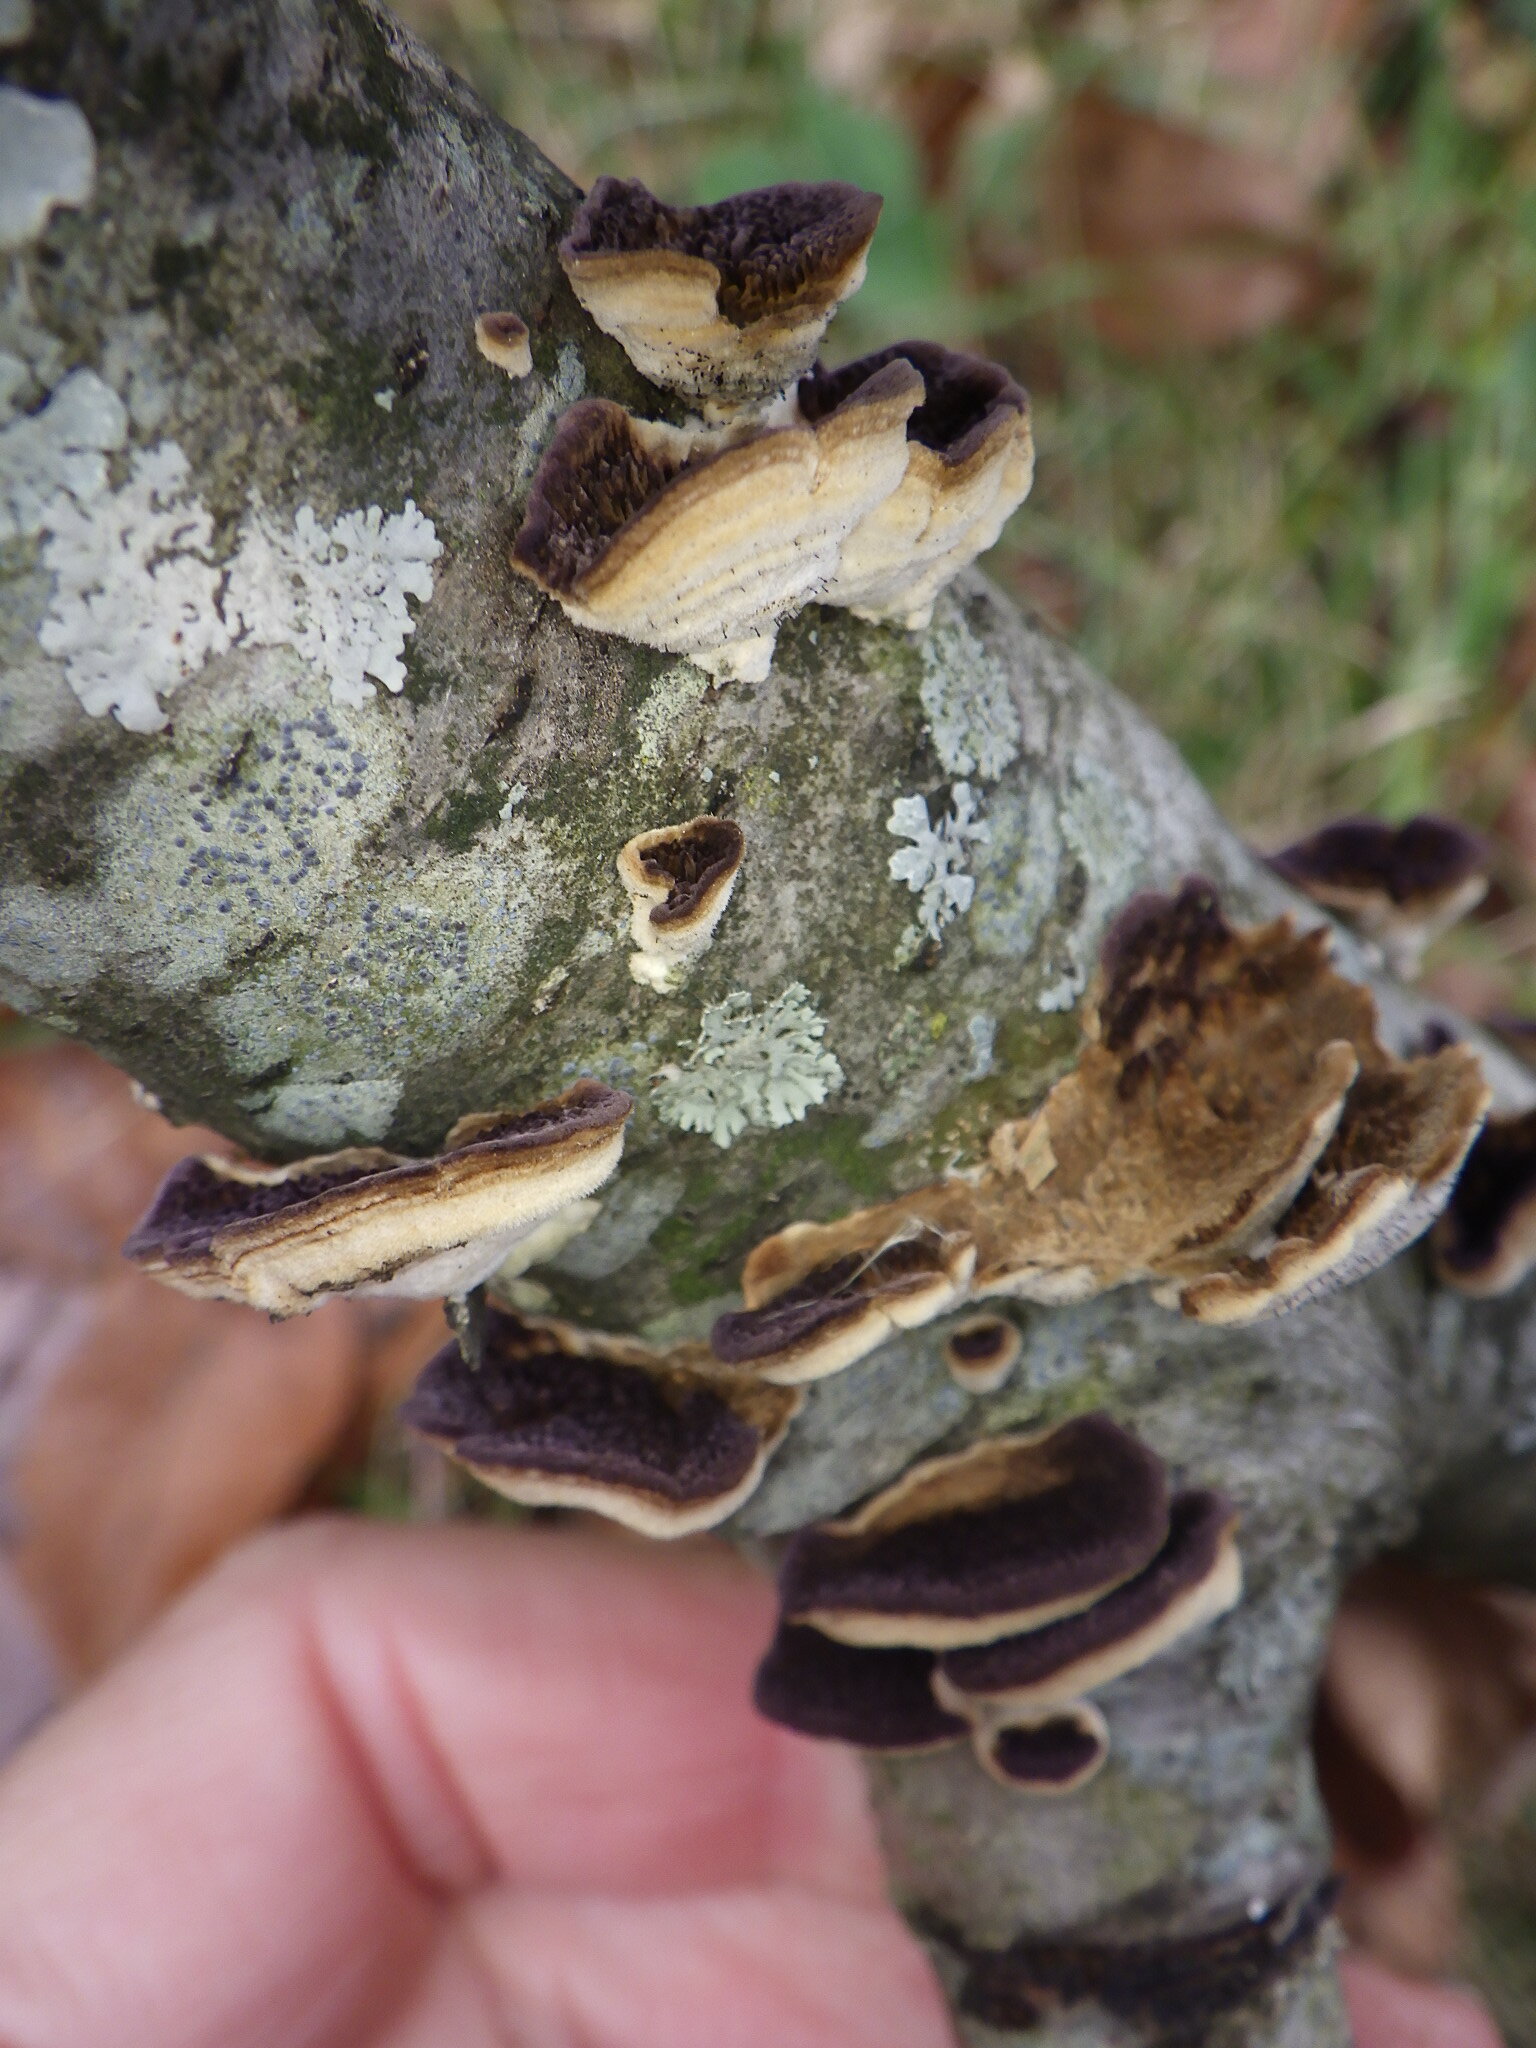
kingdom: Fungi
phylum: Basidiomycota
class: Agaricomycetes
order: Hymenochaetales
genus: Trichaptum
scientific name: Trichaptum biforme
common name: Violet-toothed polypore
